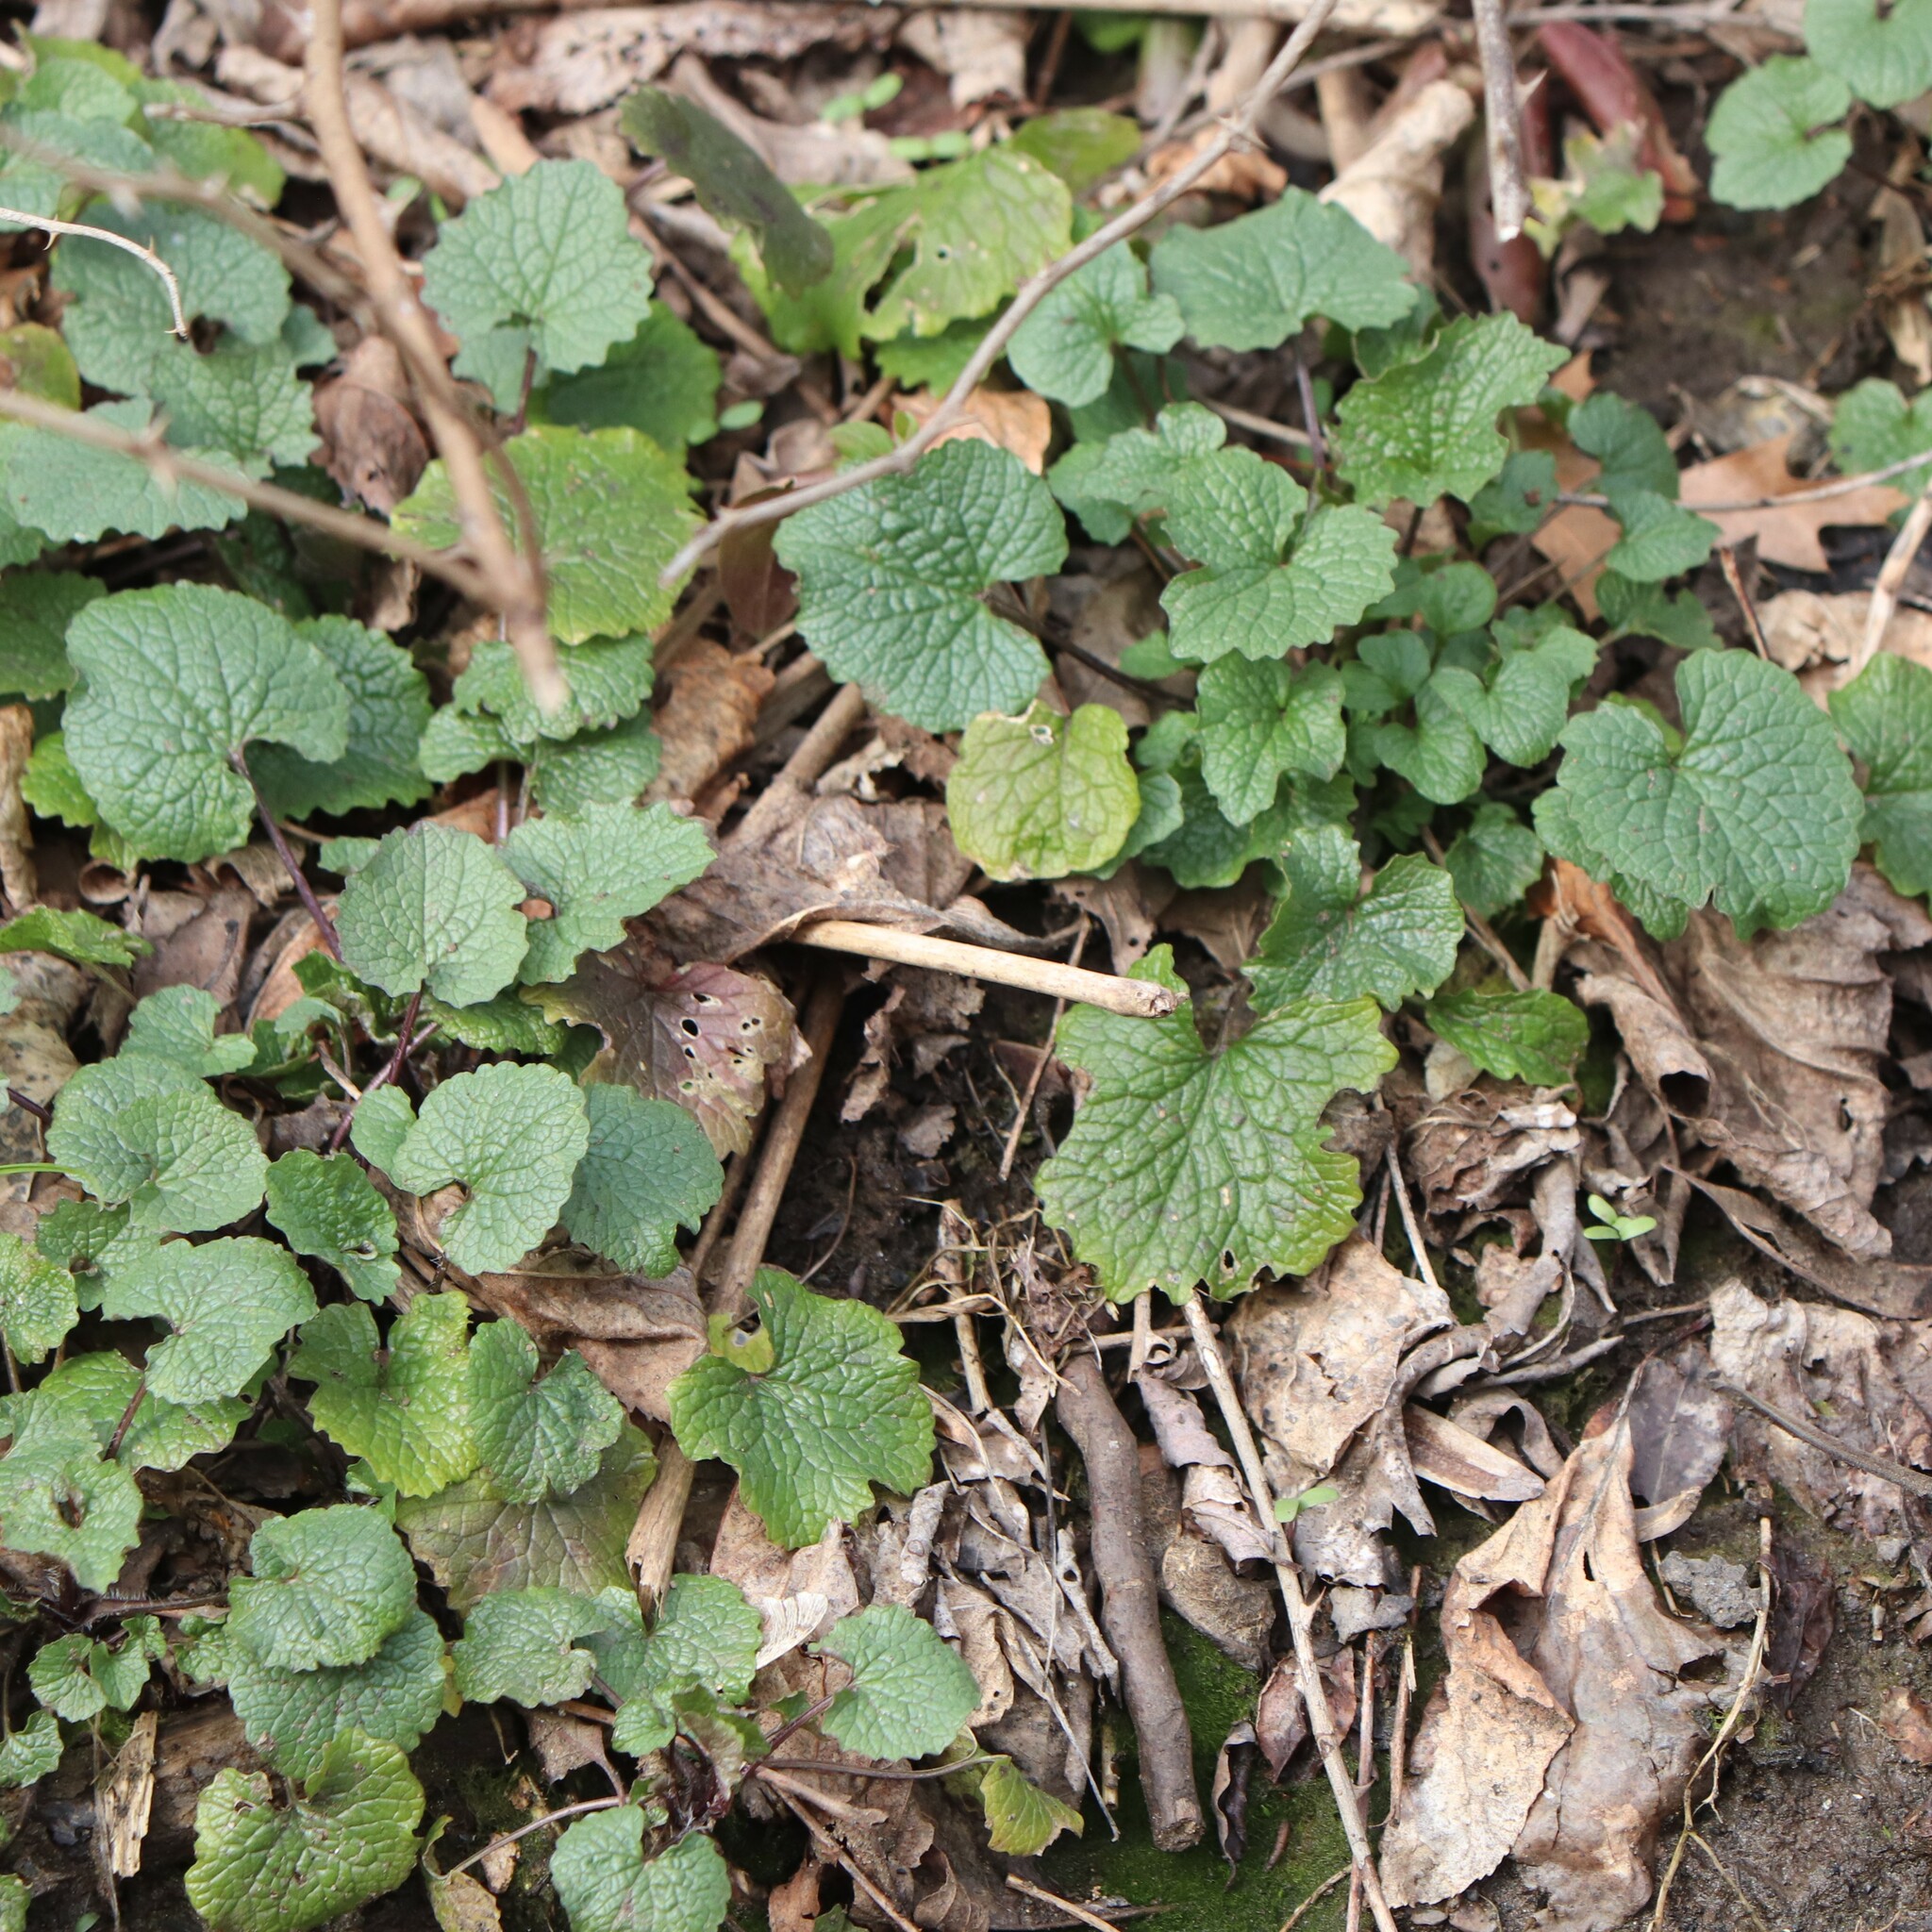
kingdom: Plantae
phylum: Tracheophyta
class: Magnoliopsida
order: Brassicales
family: Brassicaceae
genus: Alliaria
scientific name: Alliaria petiolata
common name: Garlic mustard
